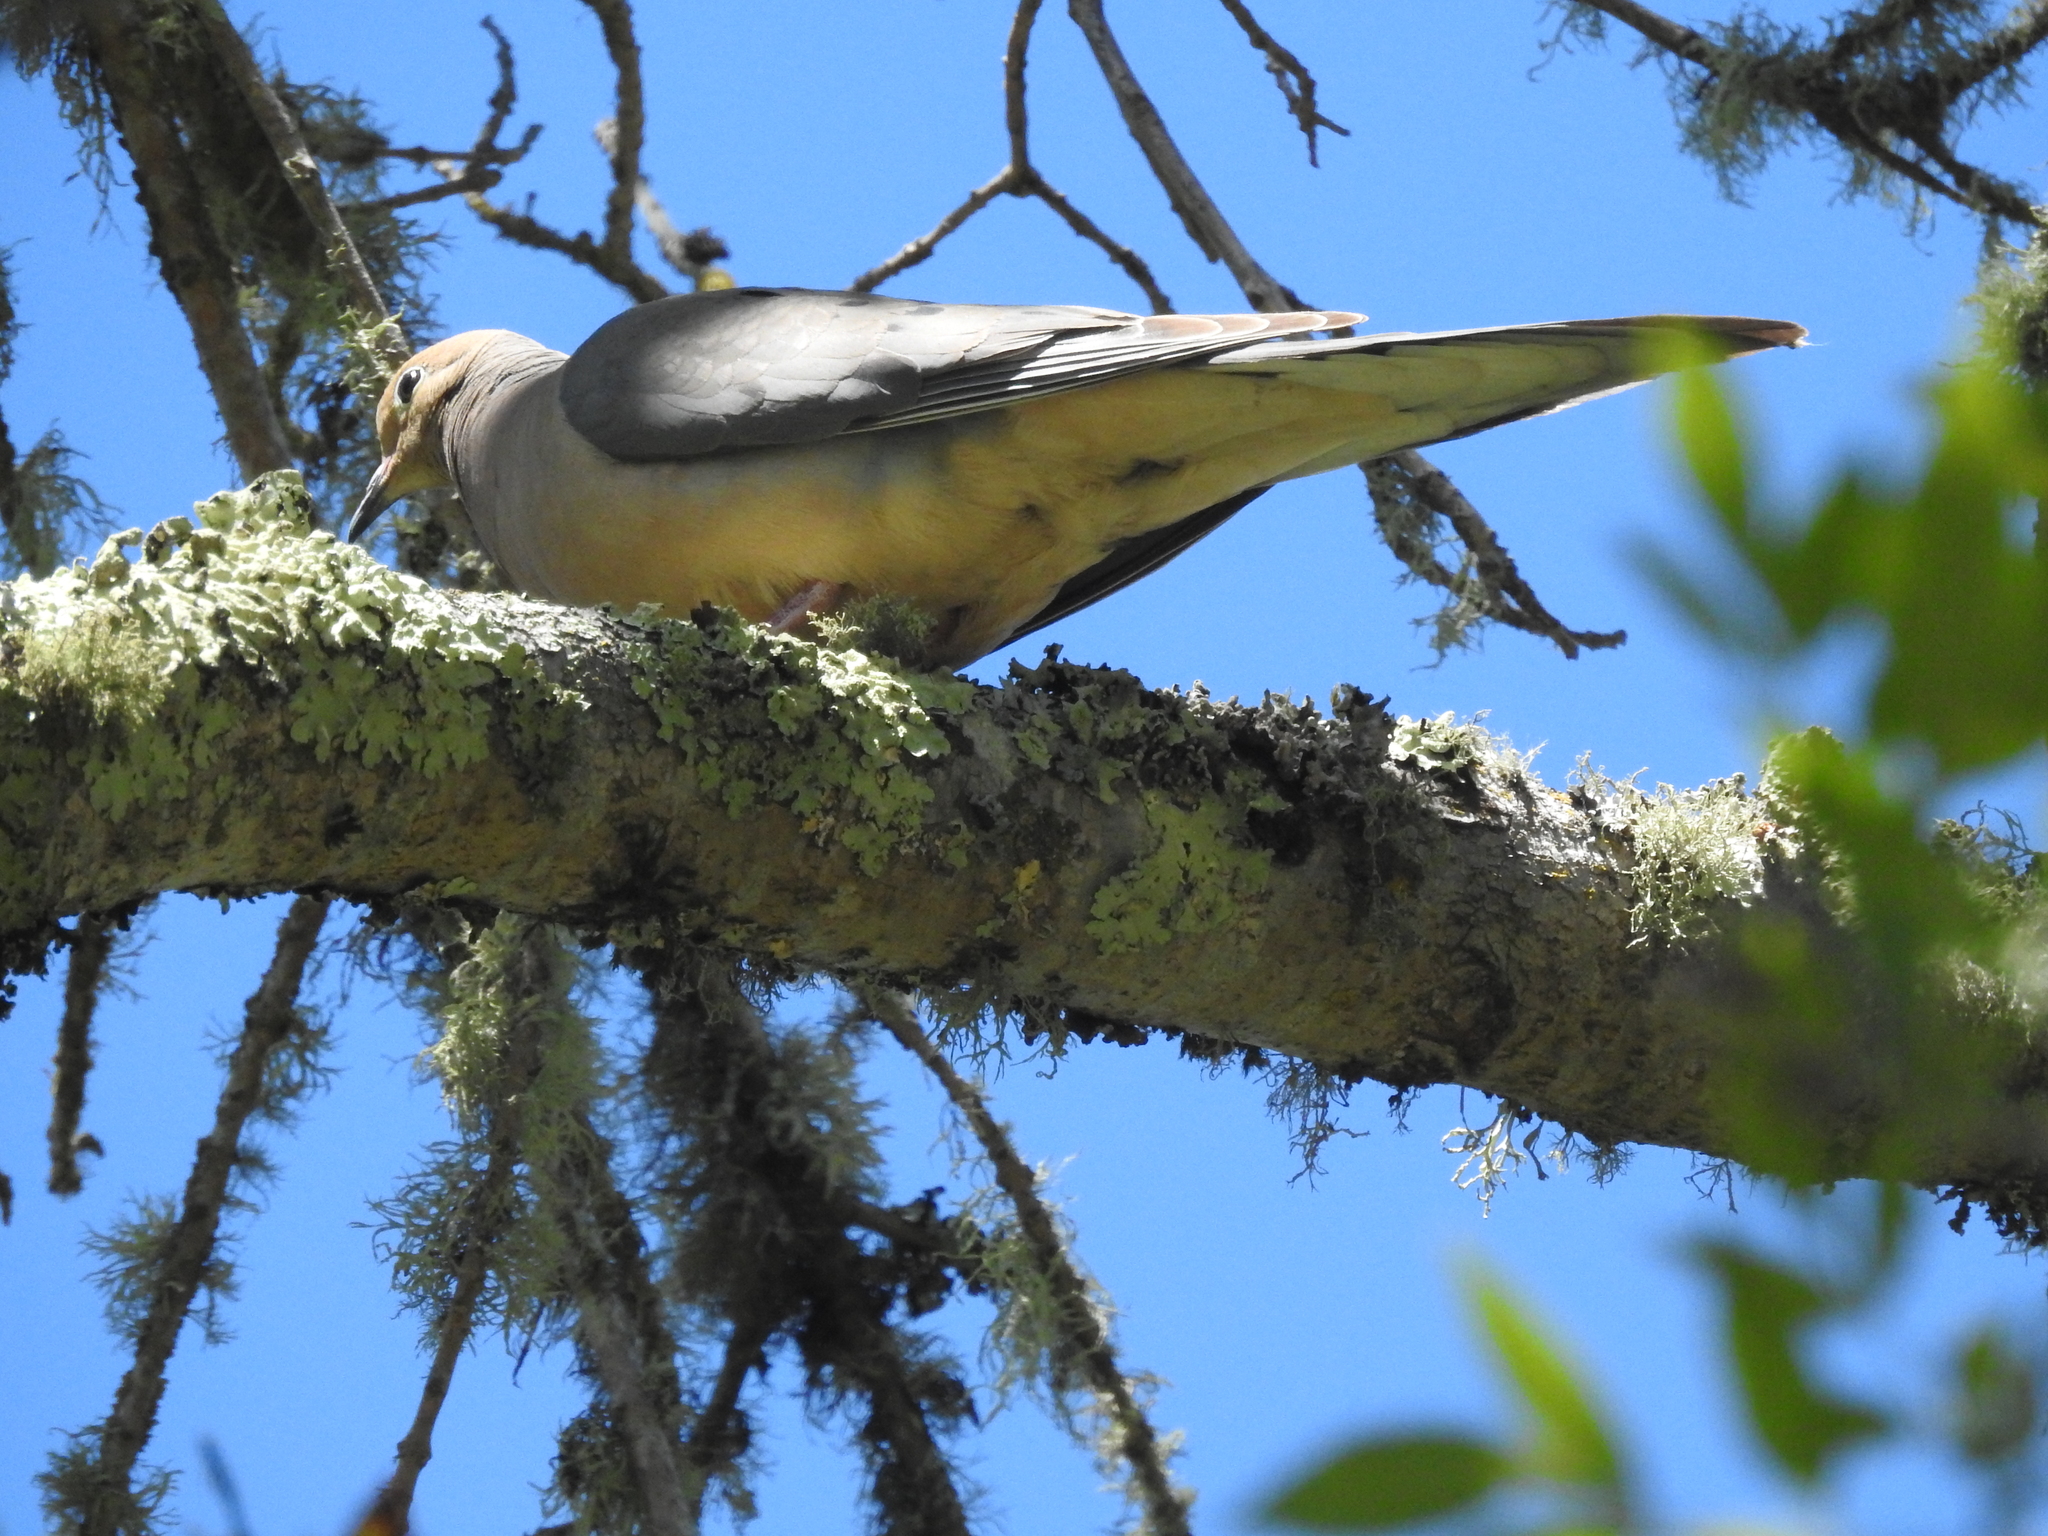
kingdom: Animalia
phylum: Chordata
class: Aves
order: Columbiformes
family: Columbidae
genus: Zenaida
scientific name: Zenaida macroura
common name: Mourning dove
